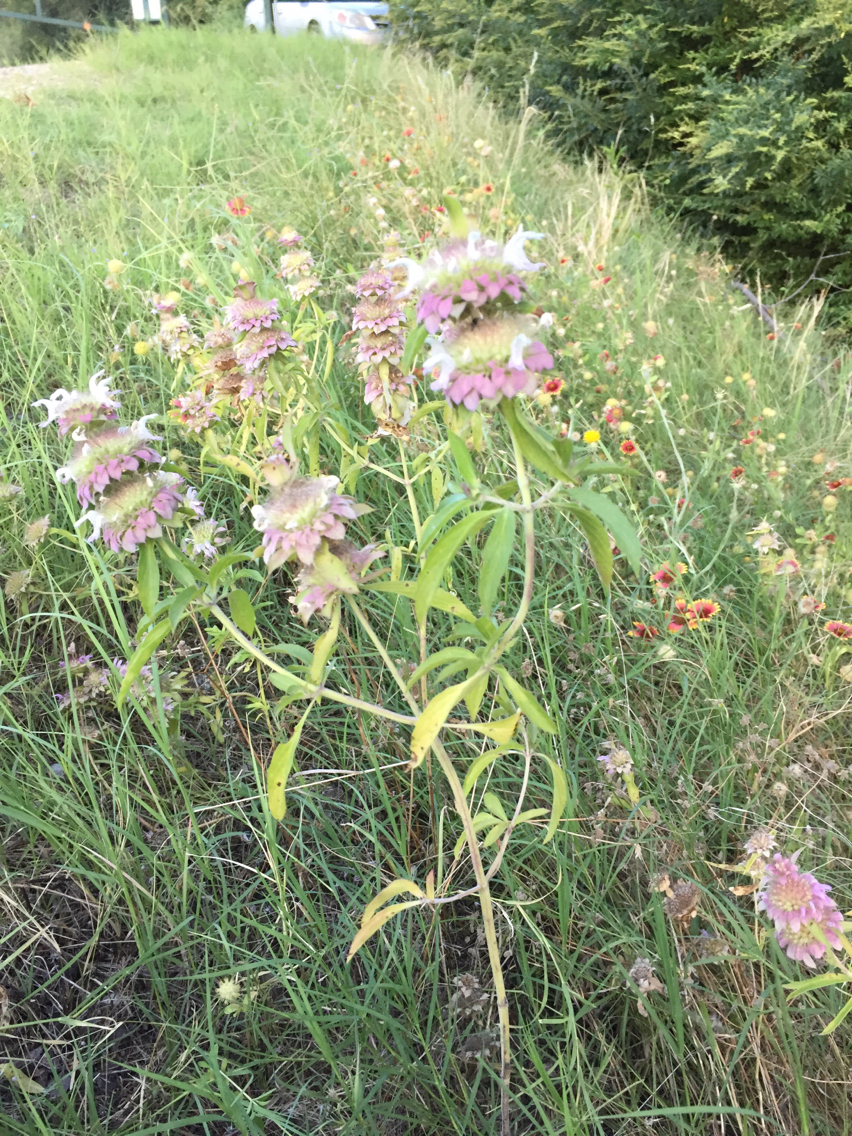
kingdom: Plantae
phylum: Tracheophyta
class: Magnoliopsida
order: Lamiales
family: Lamiaceae
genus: Monarda
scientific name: Monarda citriodora
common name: Lemon beebalm
